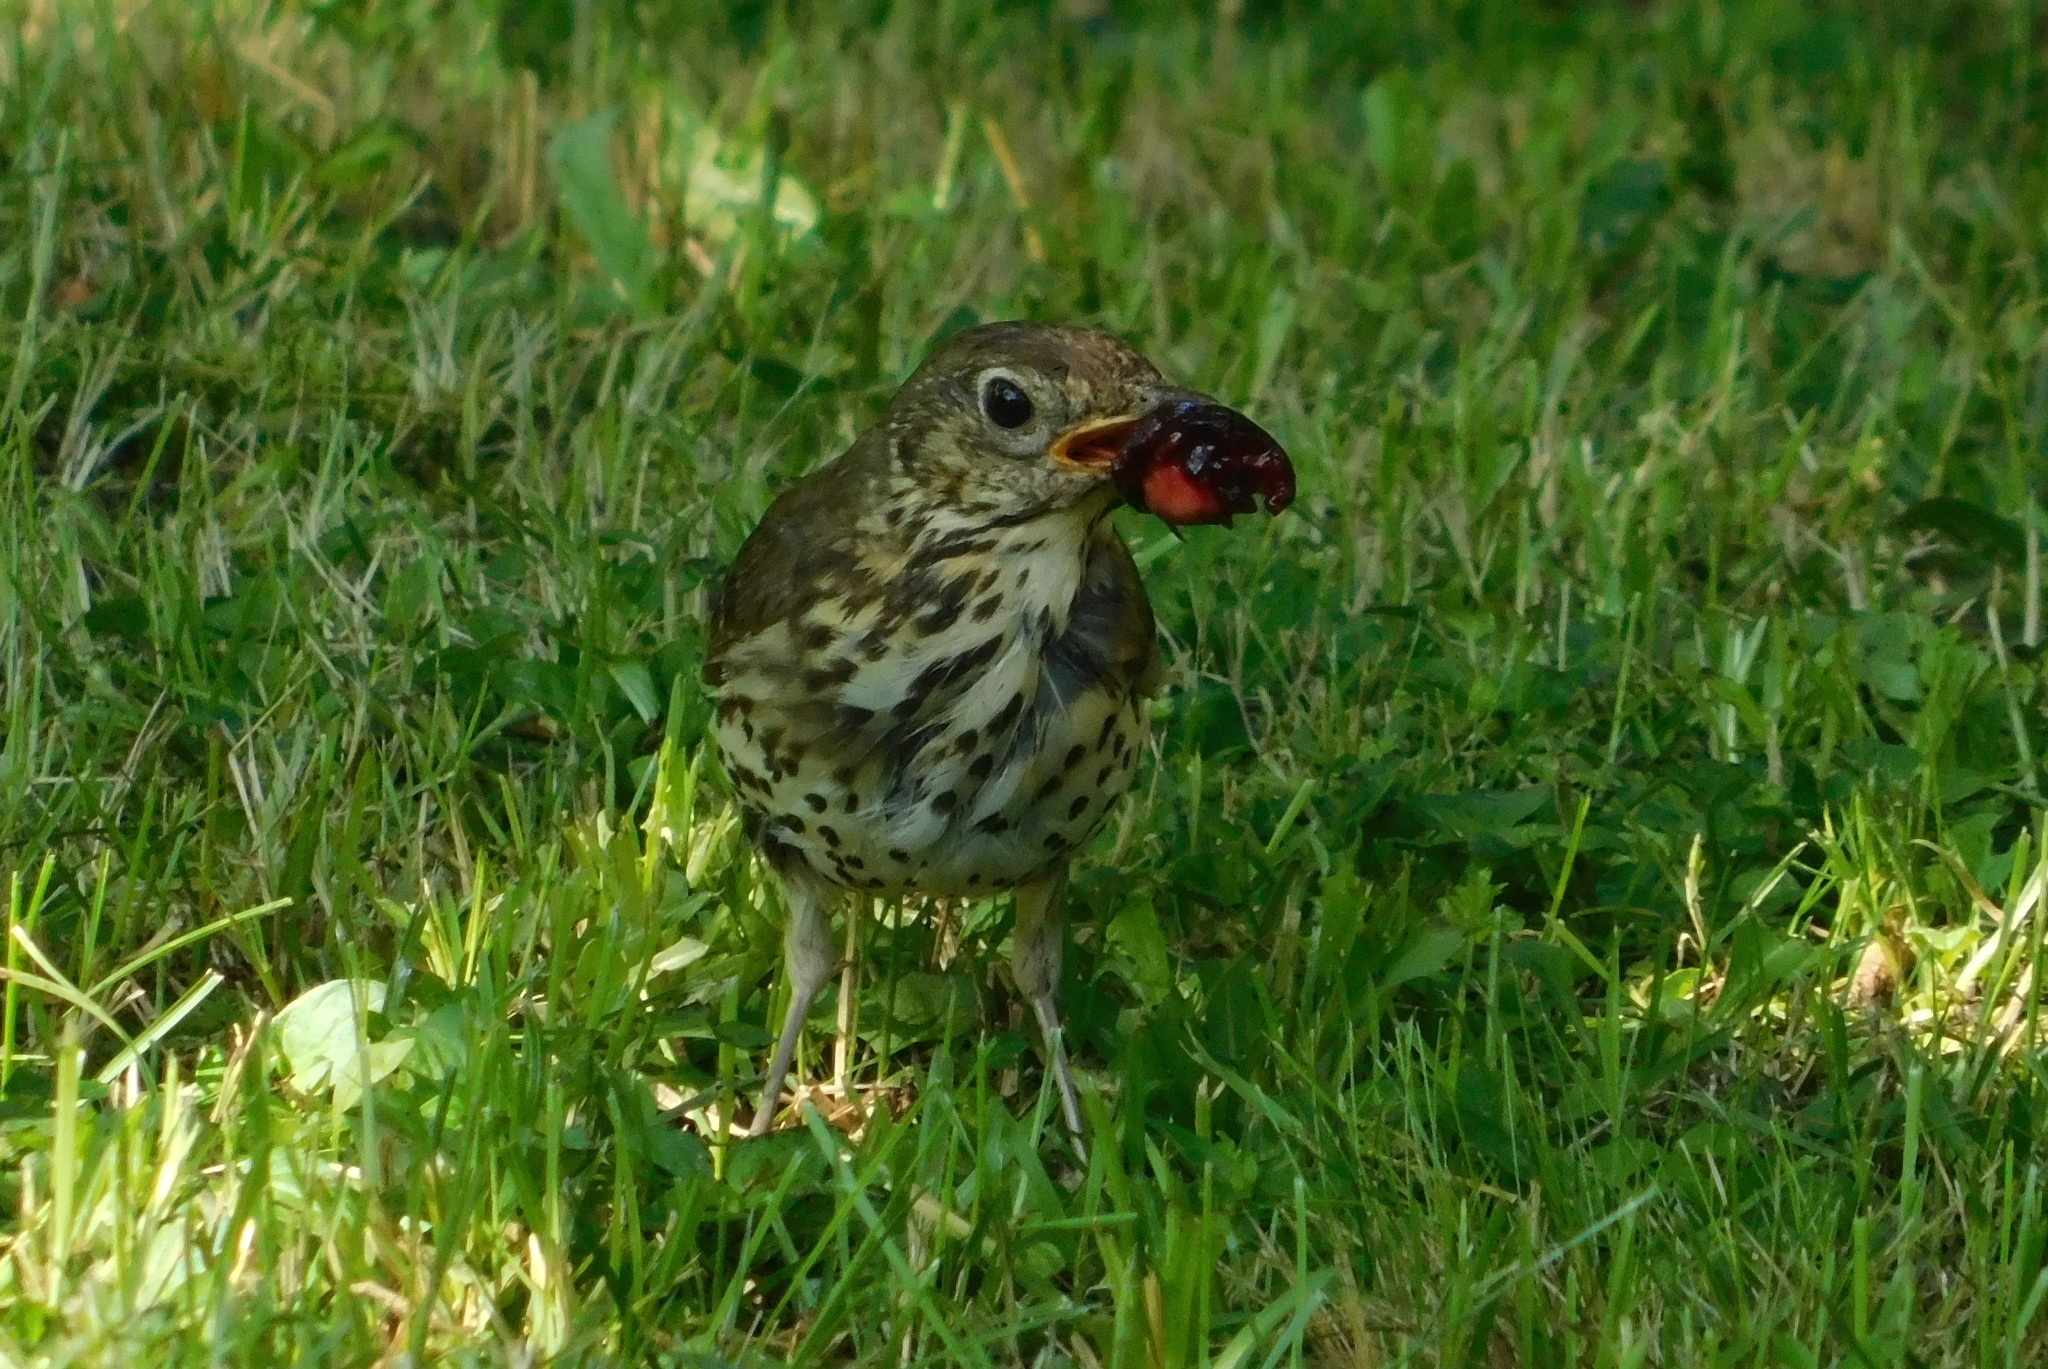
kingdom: Animalia
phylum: Chordata
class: Aves
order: Passeriformes
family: Turdidae
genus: Turdus
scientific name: Turdus philomelos
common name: Song thrush
